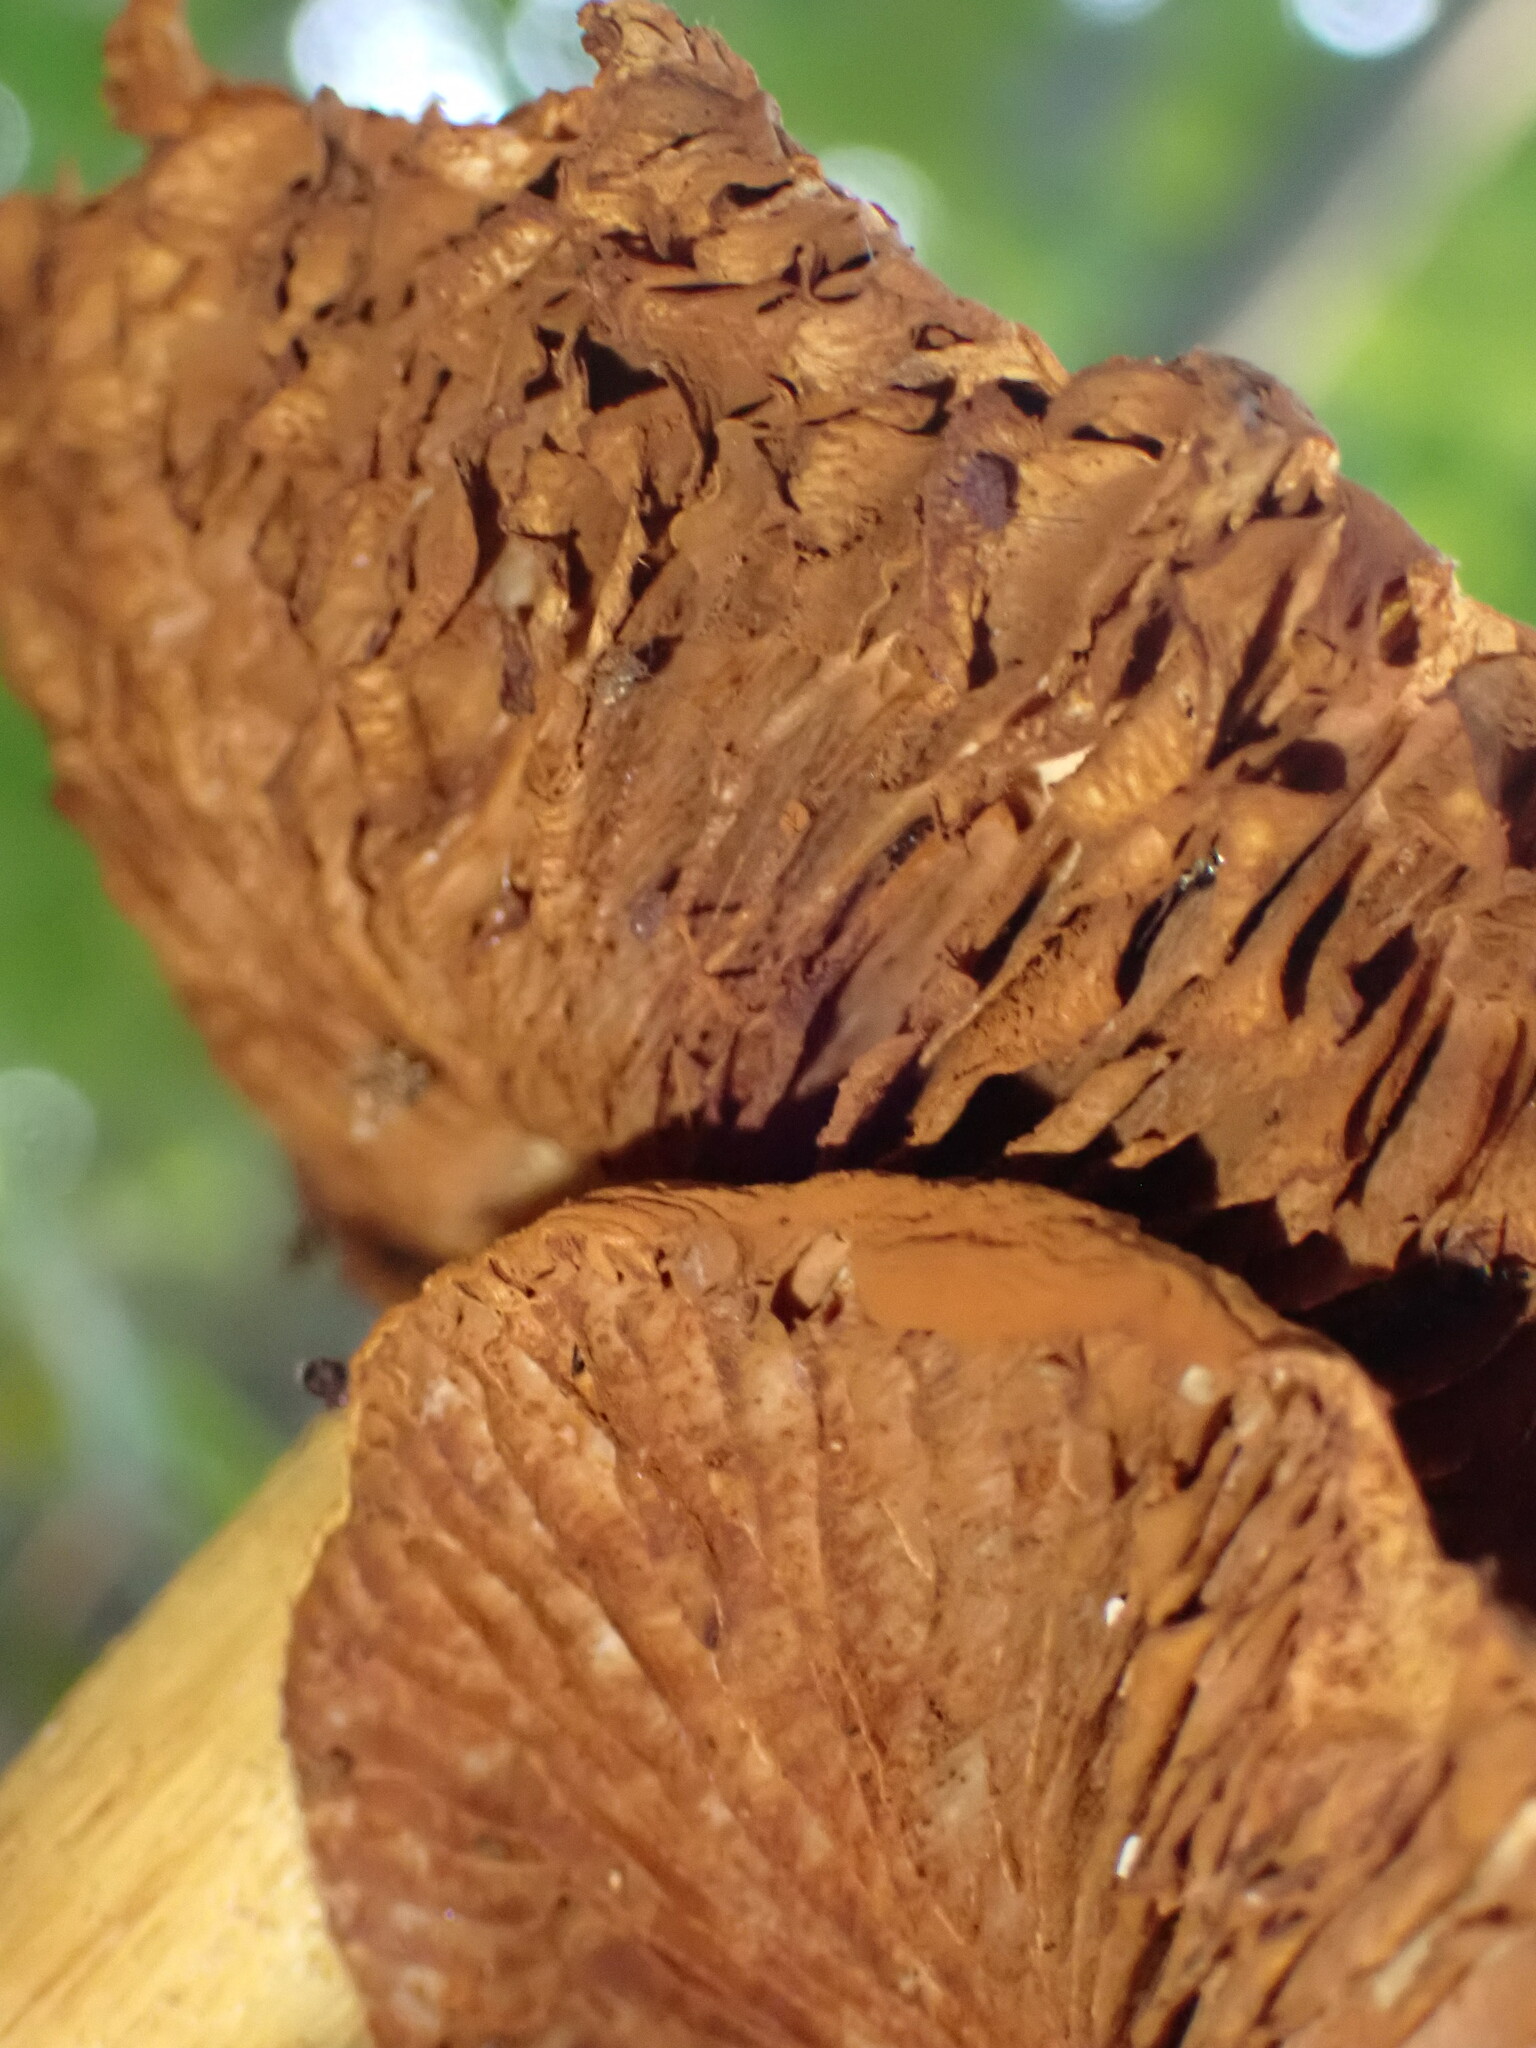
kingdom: Fungi
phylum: Basidiomycota
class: Agaricomycetes
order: Agaricales
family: Cortinariaceae
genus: Cortinarius
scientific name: Cortinarius corrugatus
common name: Wrinkled cortinarius
